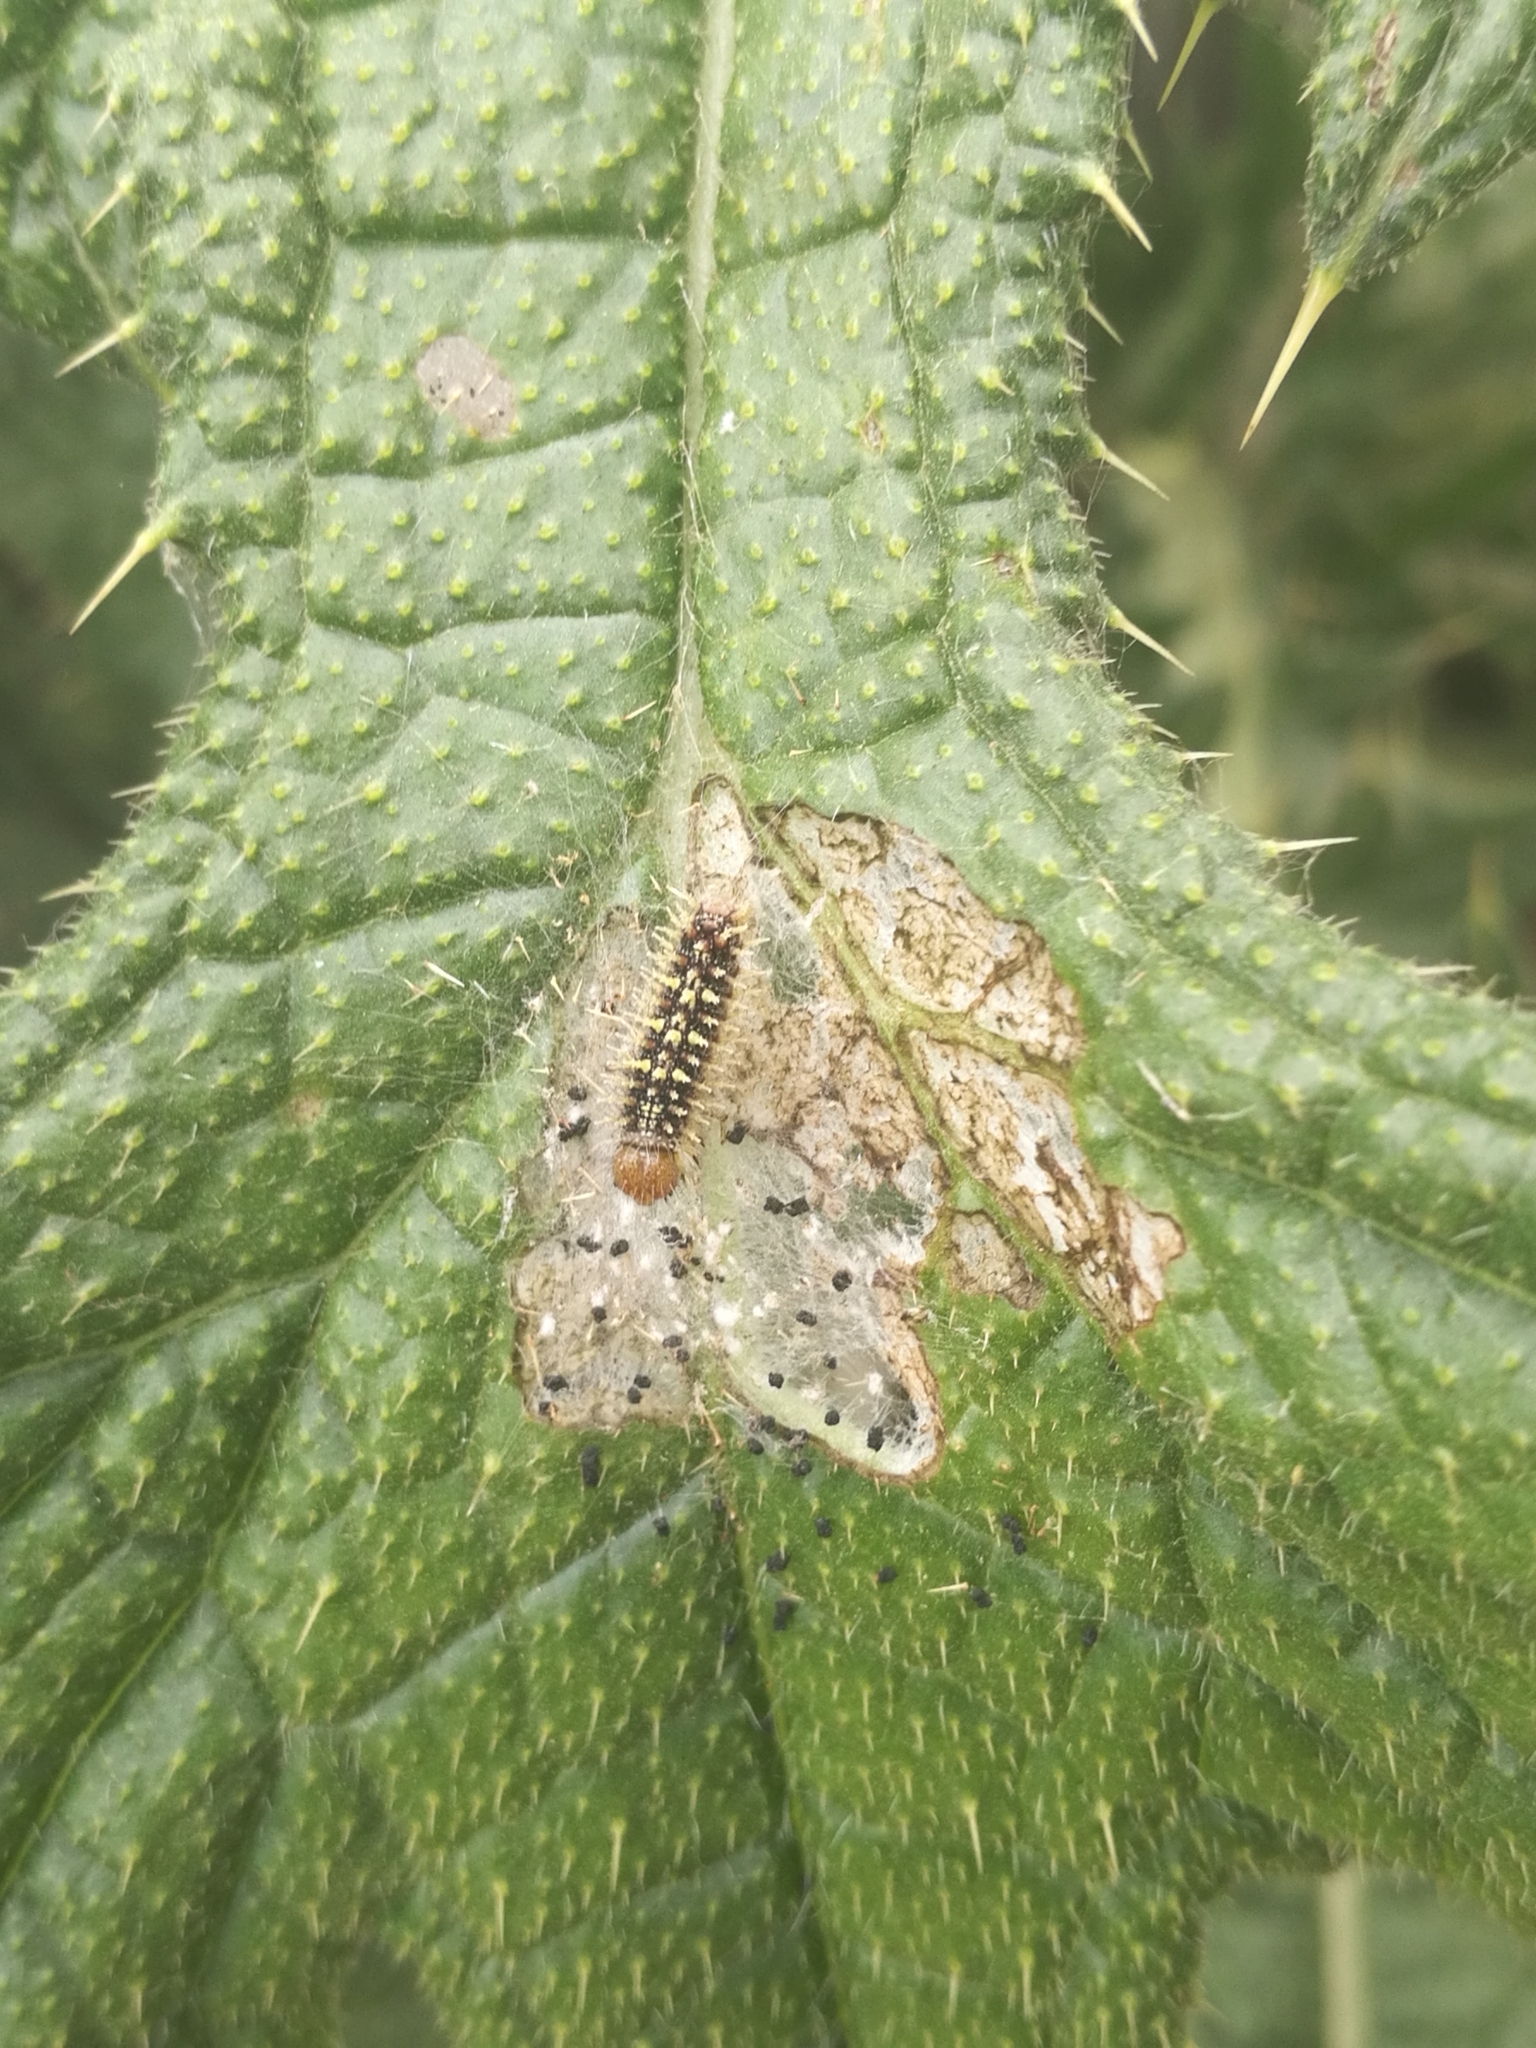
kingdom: Animalia
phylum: Arthropoda
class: Insecta
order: Lepidoptera
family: Nymphalidae
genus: Vanessa
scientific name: Vanessa cardui
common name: Painted lady
